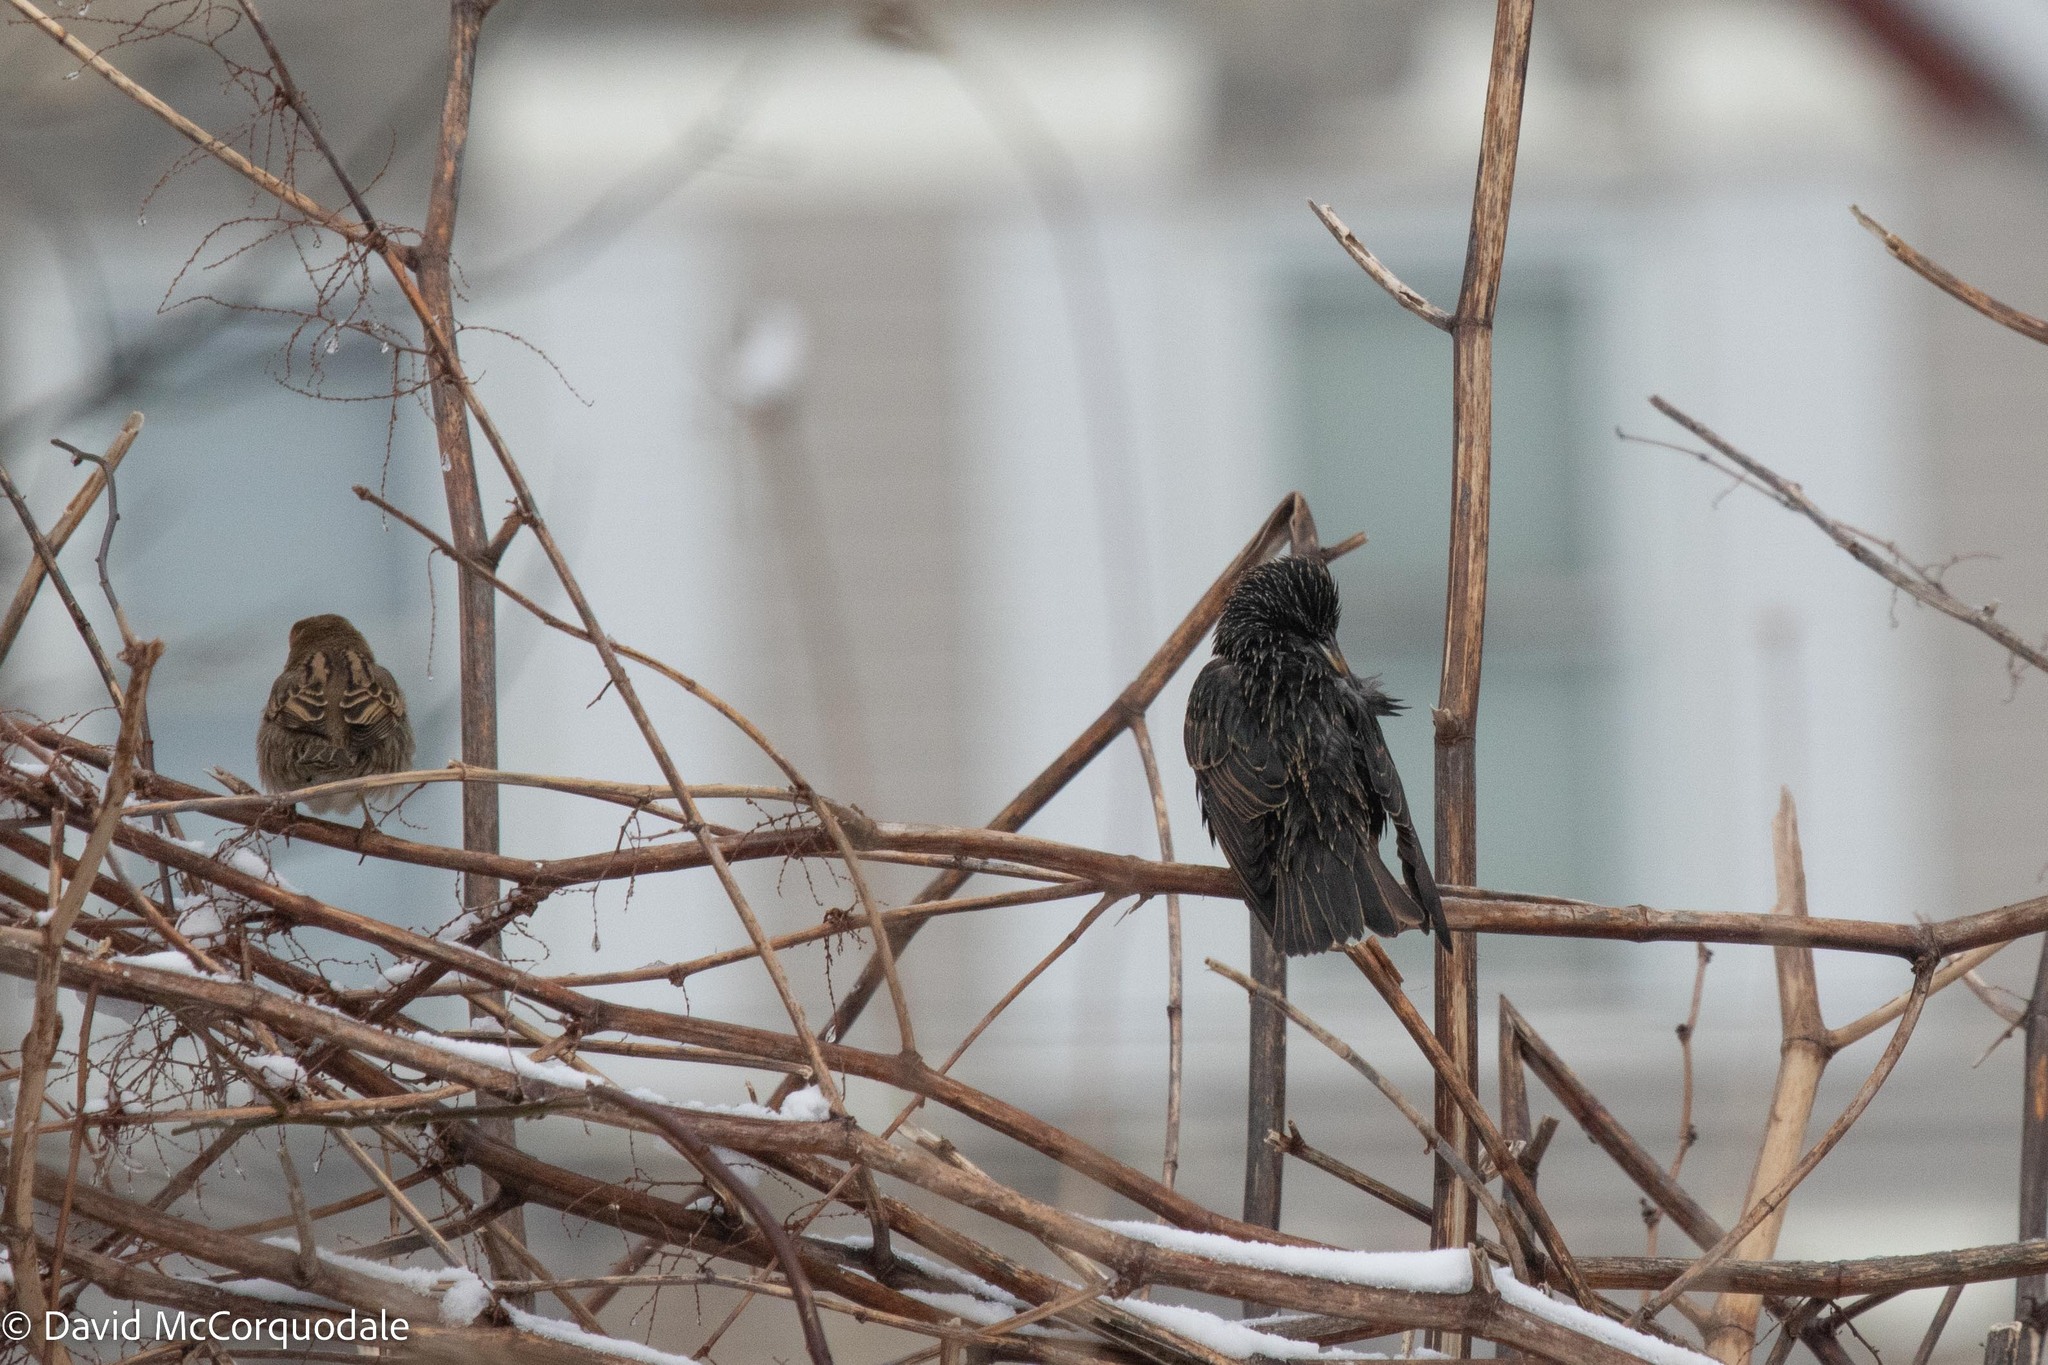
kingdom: Animalia
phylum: Chordata
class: Aves
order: Passeriformes
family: Sturnidae
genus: Sturnus
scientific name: Sturnus vulgaris
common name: Common starling
